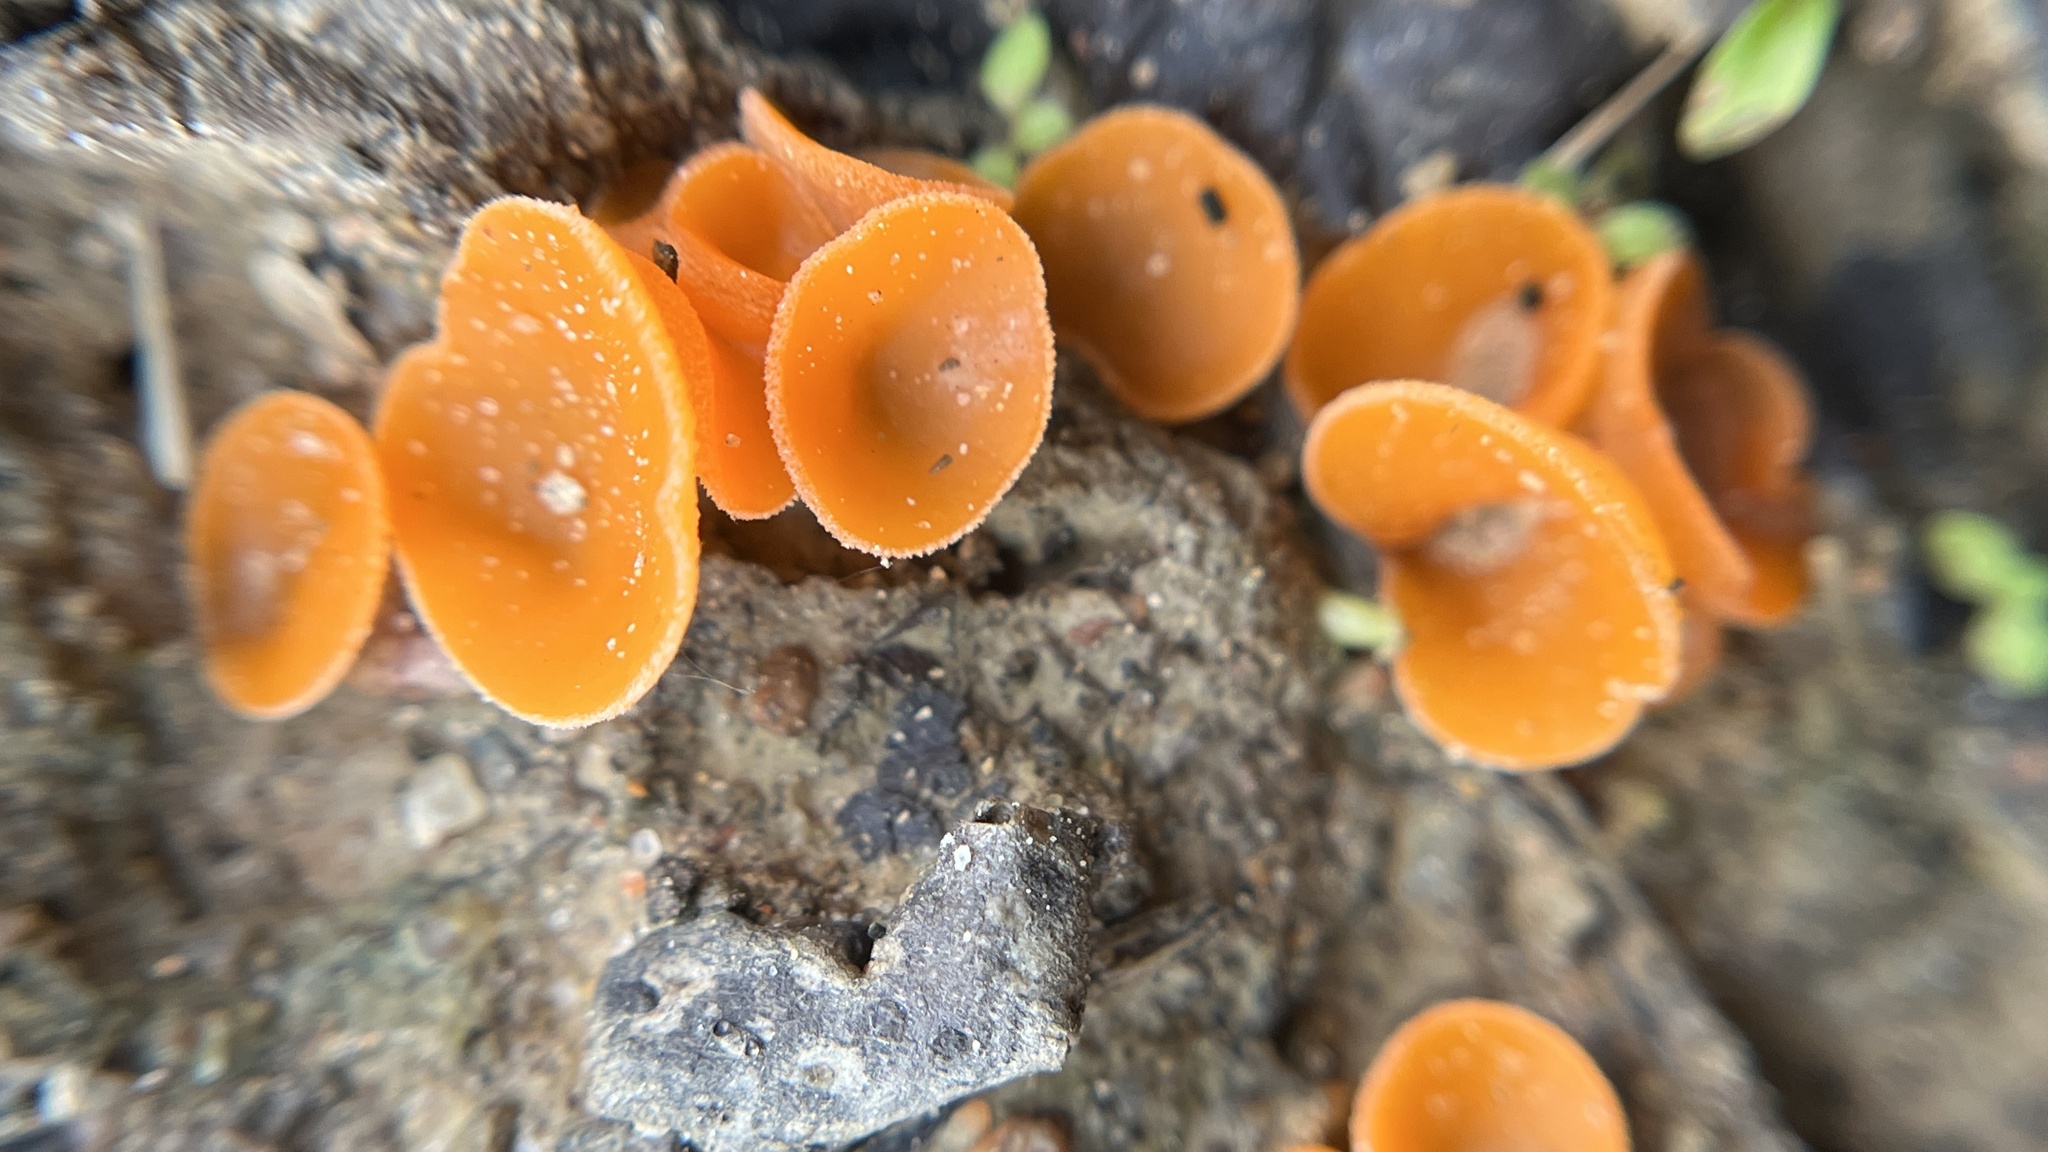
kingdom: Fungi
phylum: Ascomycota
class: Pezizomycetes
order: Pezizales
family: Pyronemataceae
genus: Aleuria
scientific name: Aleuria aurantia
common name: Orange peel fungus
